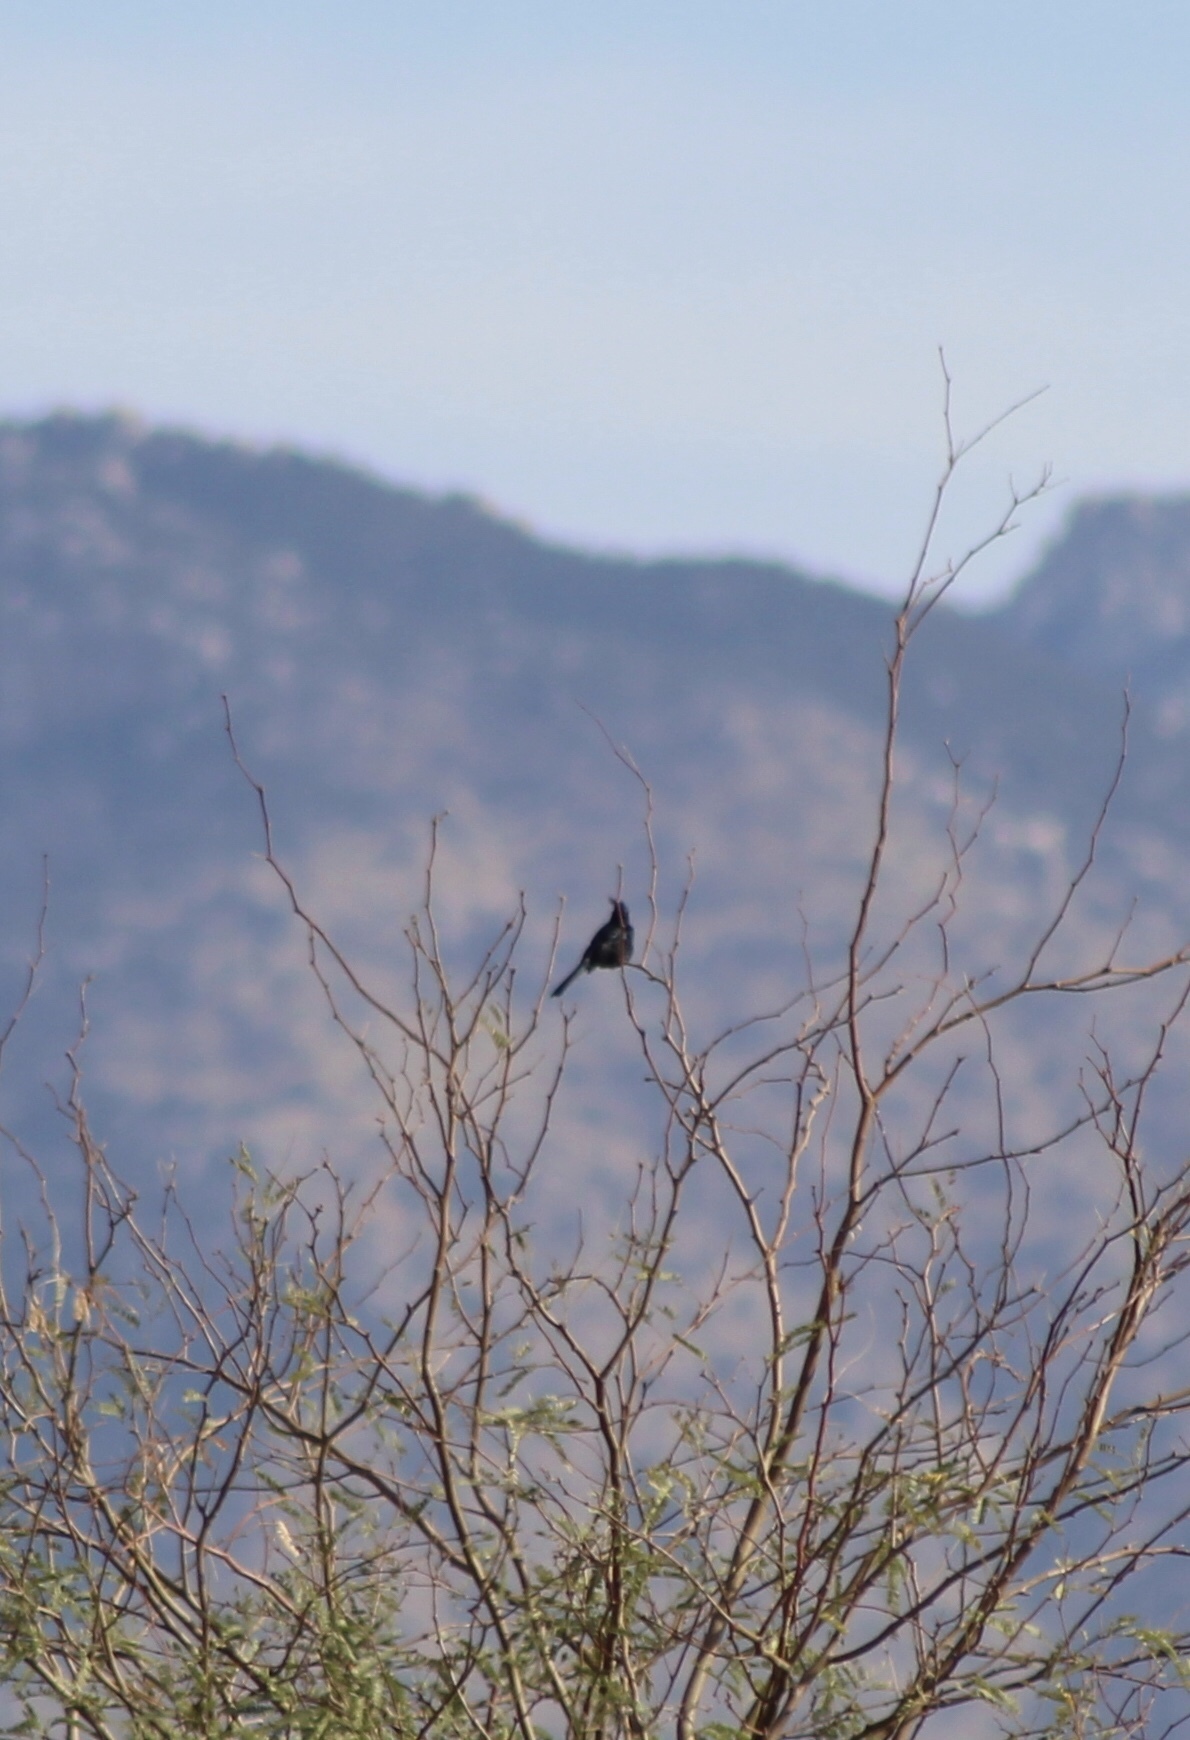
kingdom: Animalia
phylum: Chordata
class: Aves
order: Passeriformes
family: Ptilogonatidae
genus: Phainopepla
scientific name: Phainopepla nitens
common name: Phainopepla
